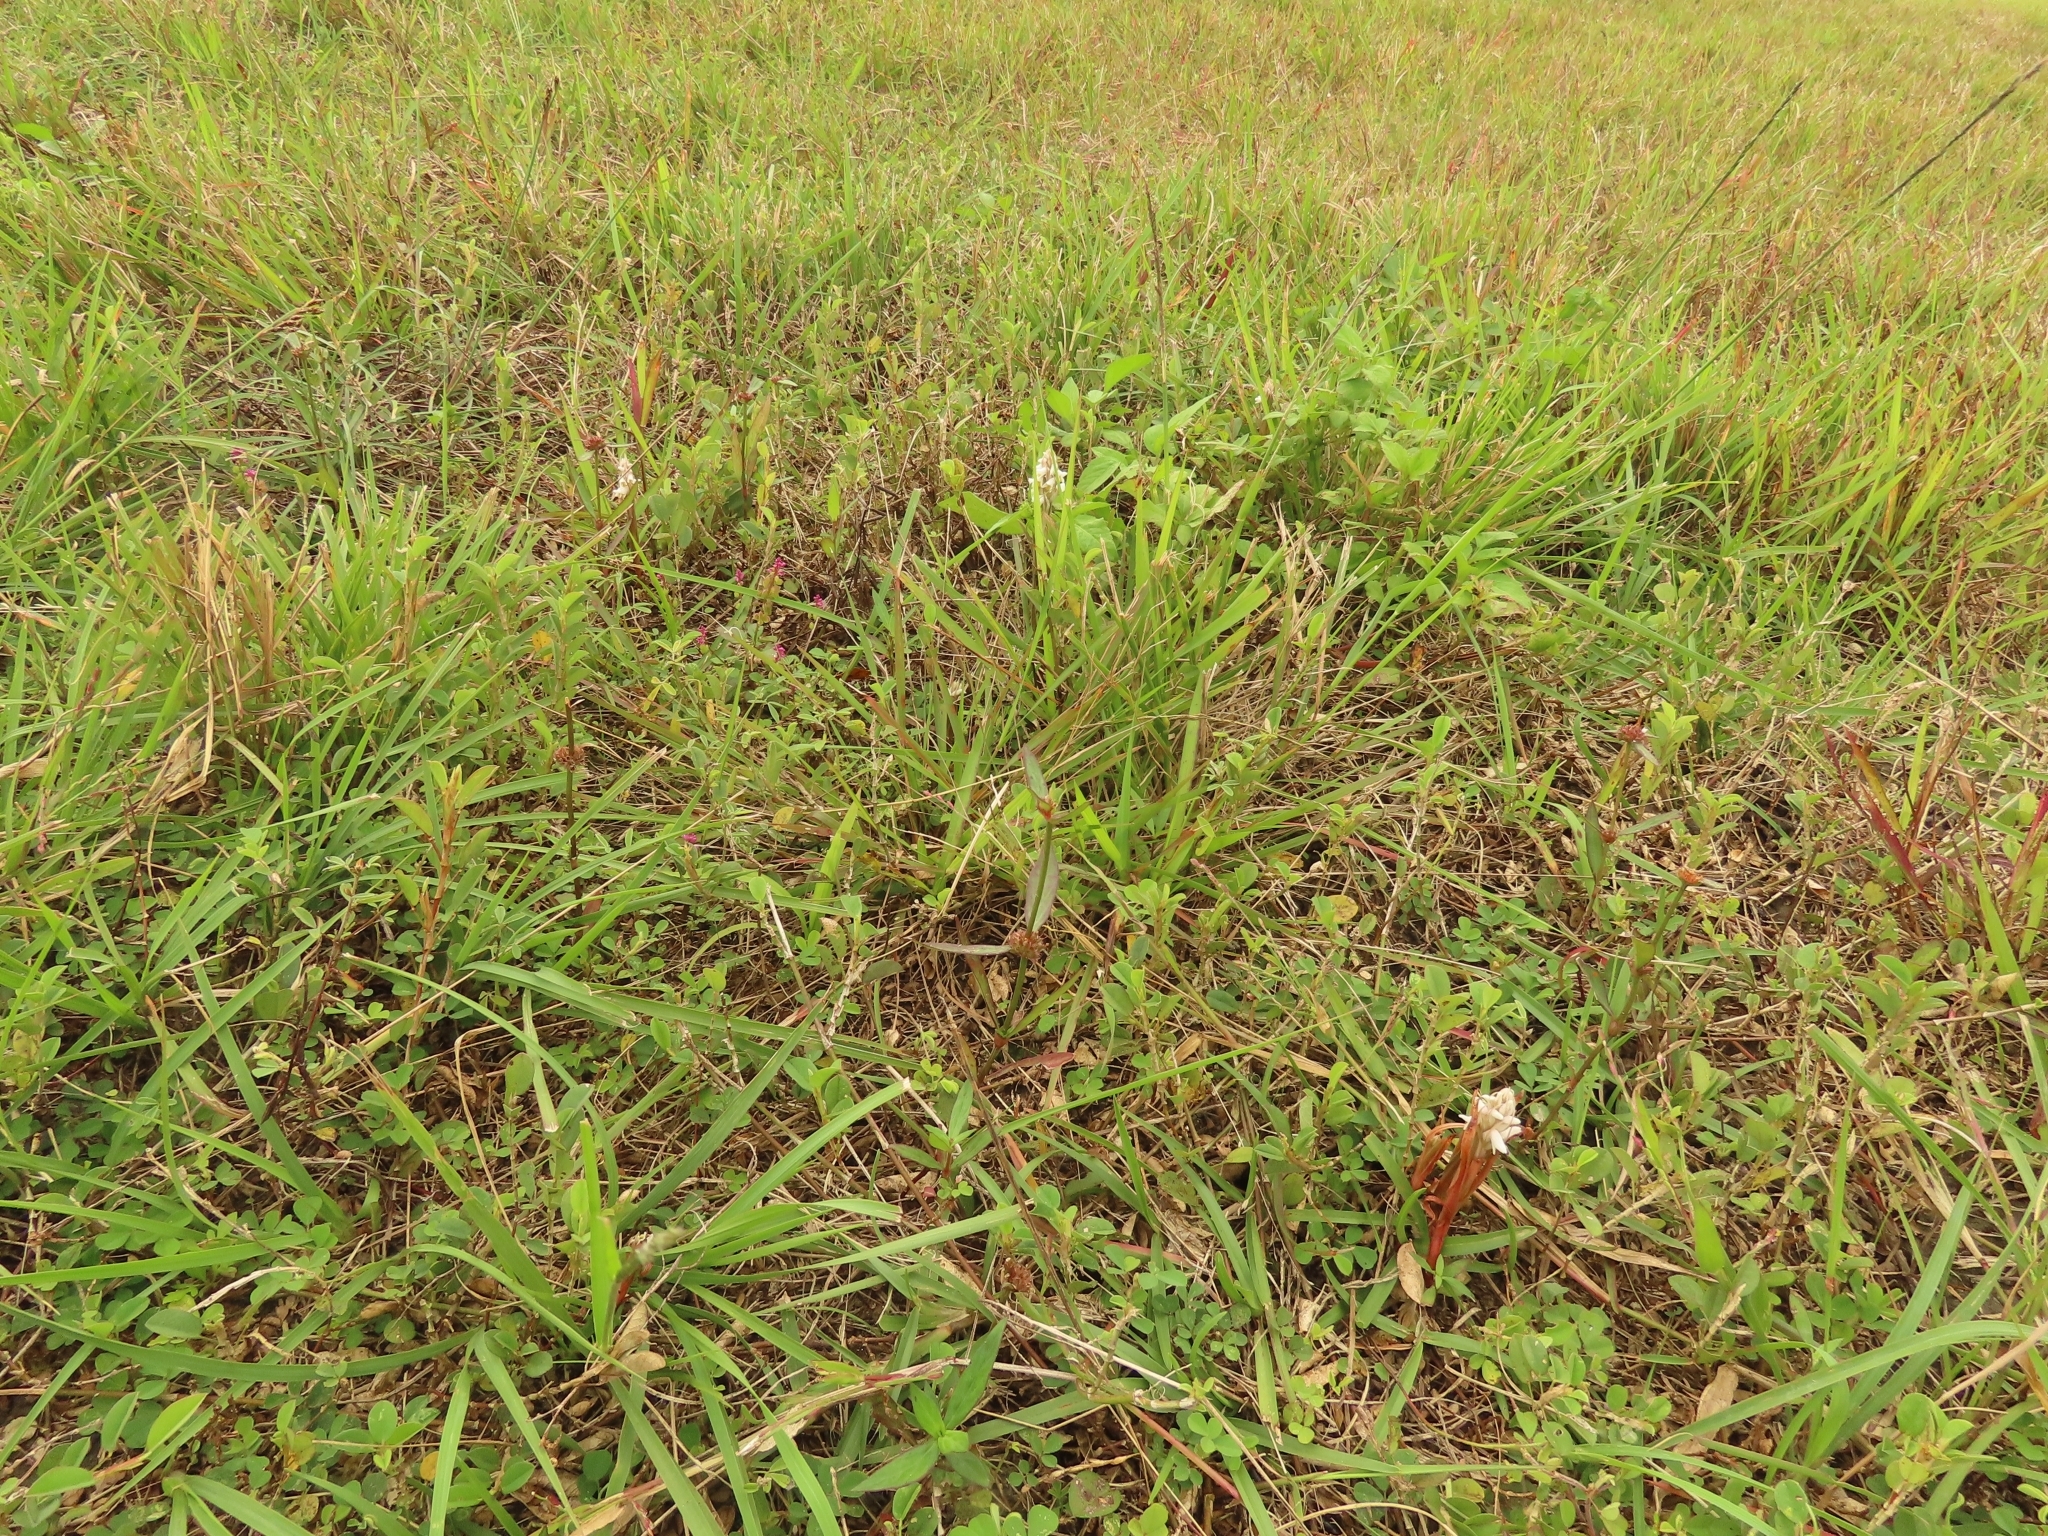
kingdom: Plantae
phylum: Tracheophyta
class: Liliopsida
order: Asparagales
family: Orchidaceae
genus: Zeuxine
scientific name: Zeuxine strateumatica
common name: Soldier's orchid
